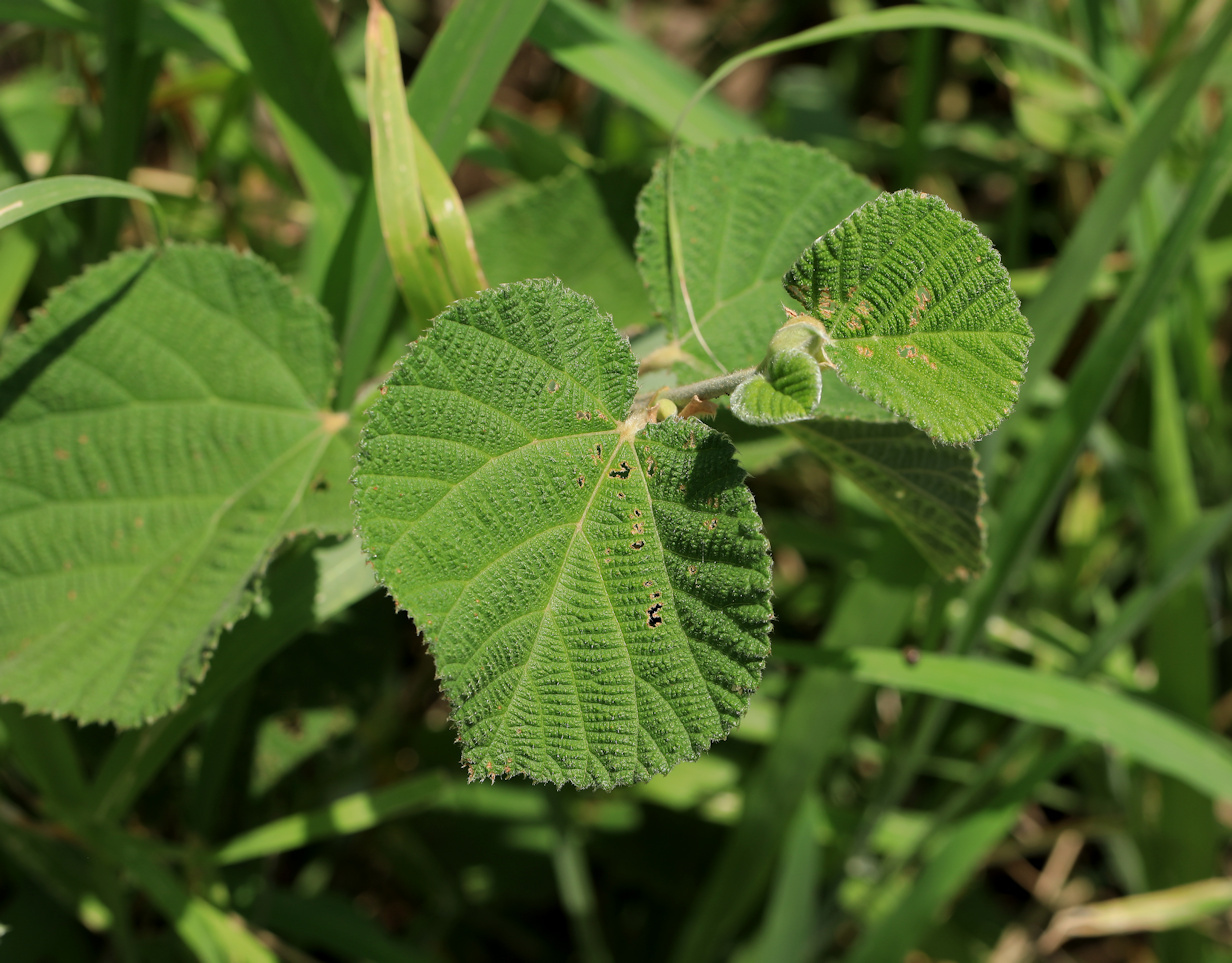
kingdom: Plantae
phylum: Tracheophyta
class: Magnoliopsida
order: Malvales
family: Malvaceae
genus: Grewia
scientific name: Grewia villosa
